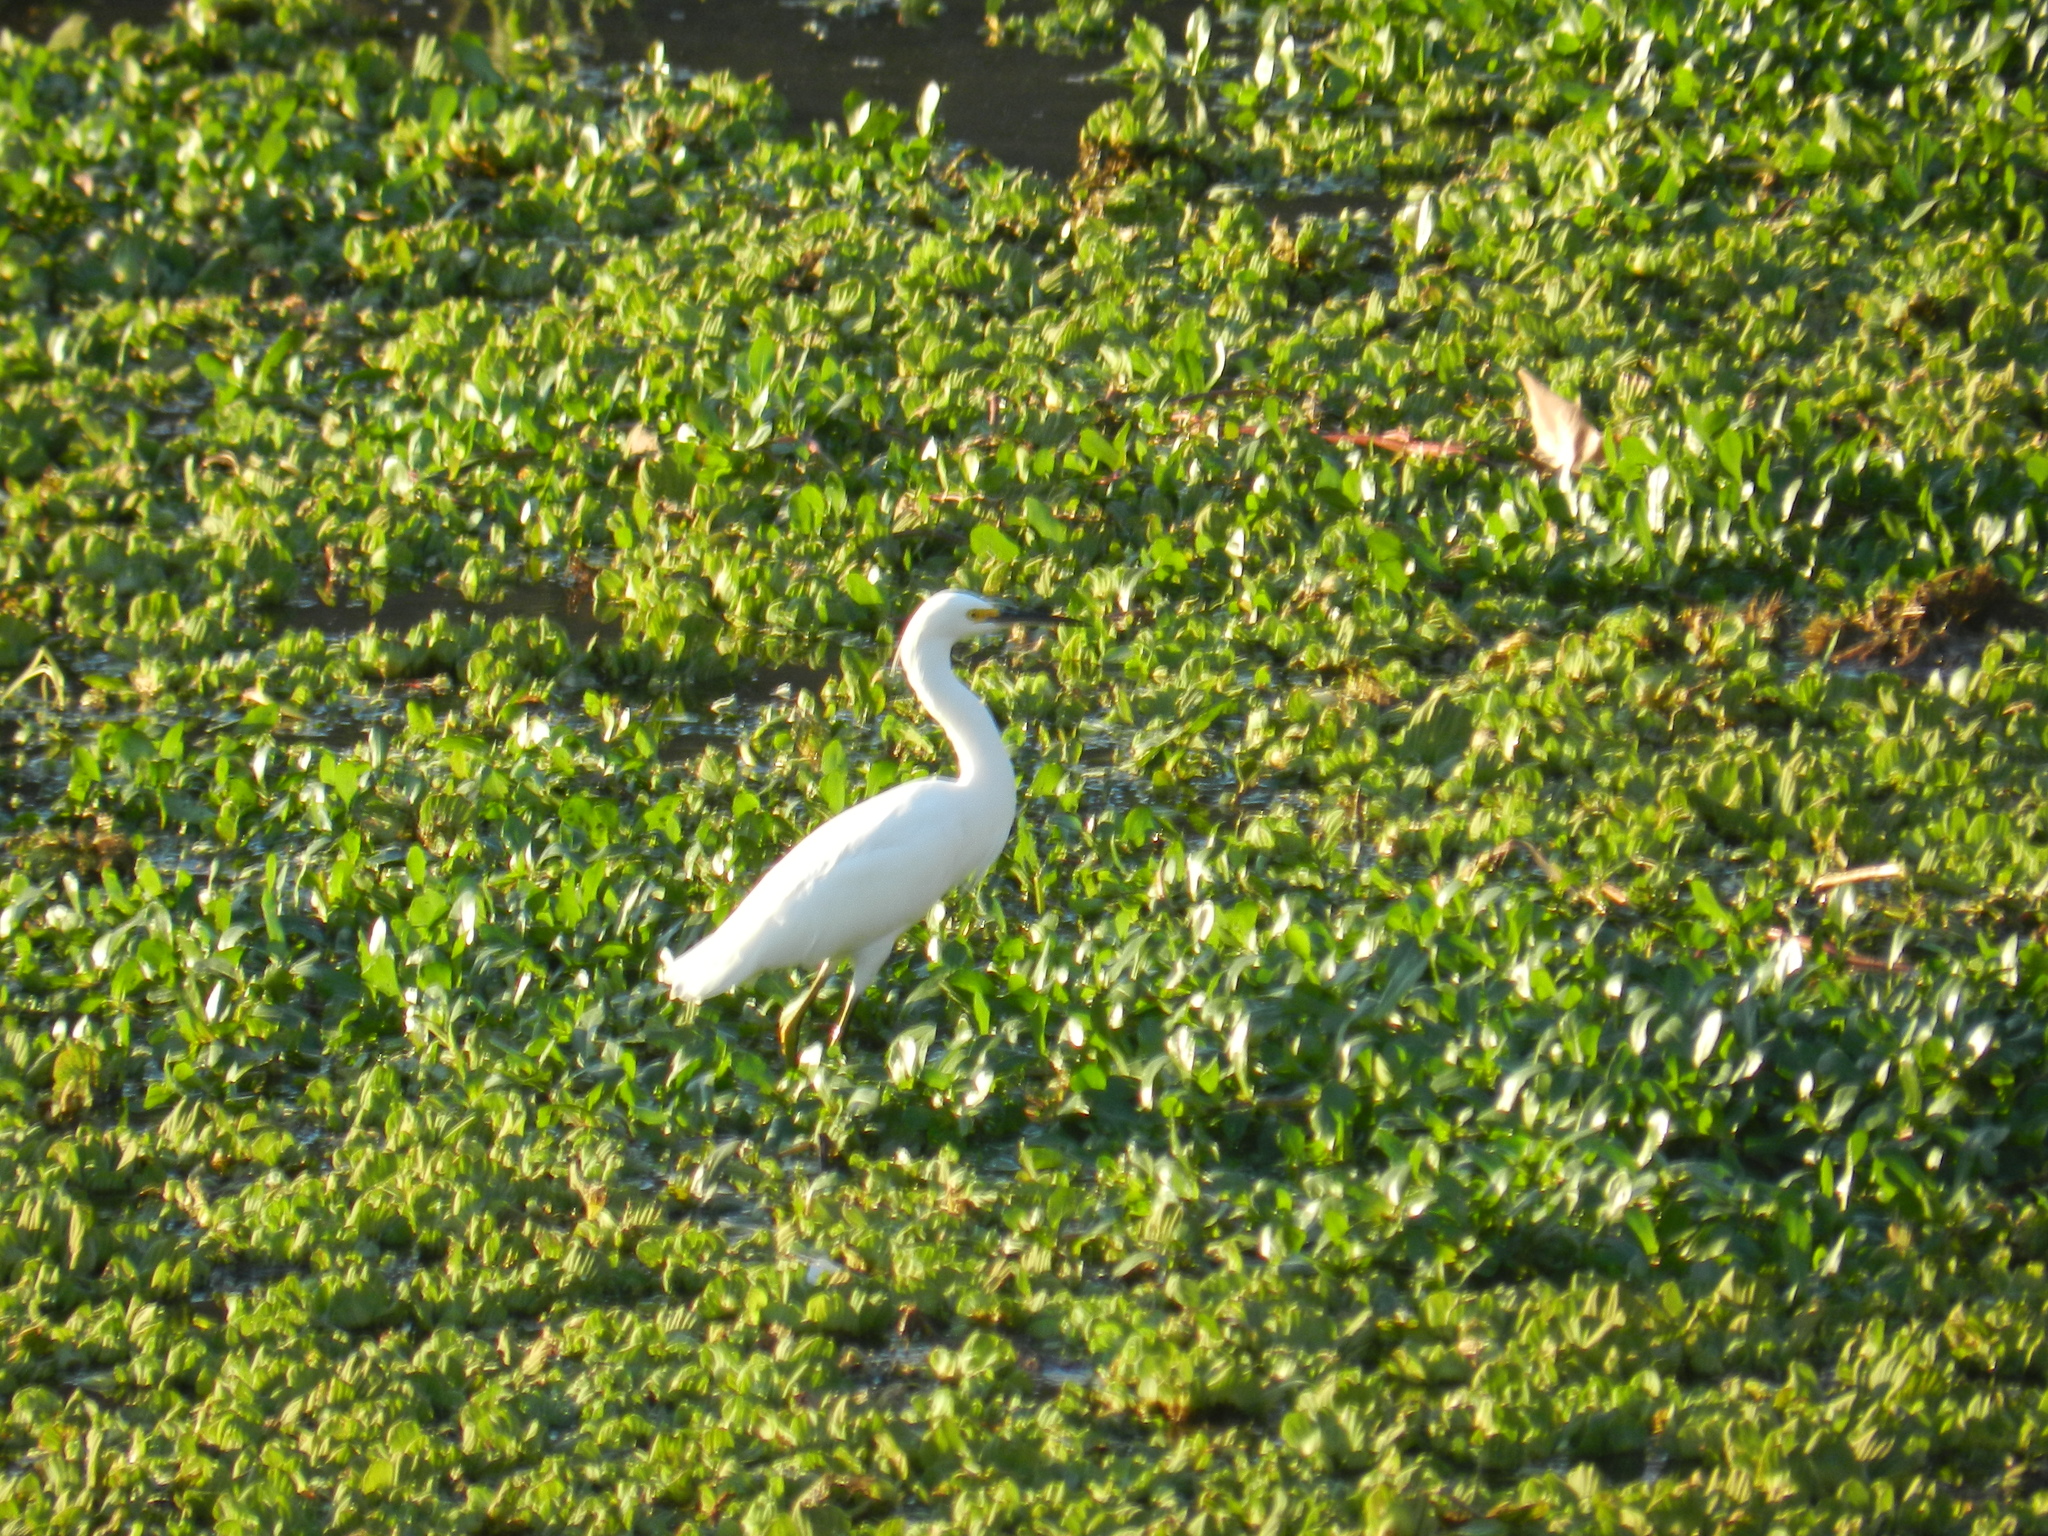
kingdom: Animalia
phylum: Chordata
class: Aves
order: Pelecaniformes
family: Ardeidae
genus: Egretta
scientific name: Egretta thula
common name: Snowy egret
